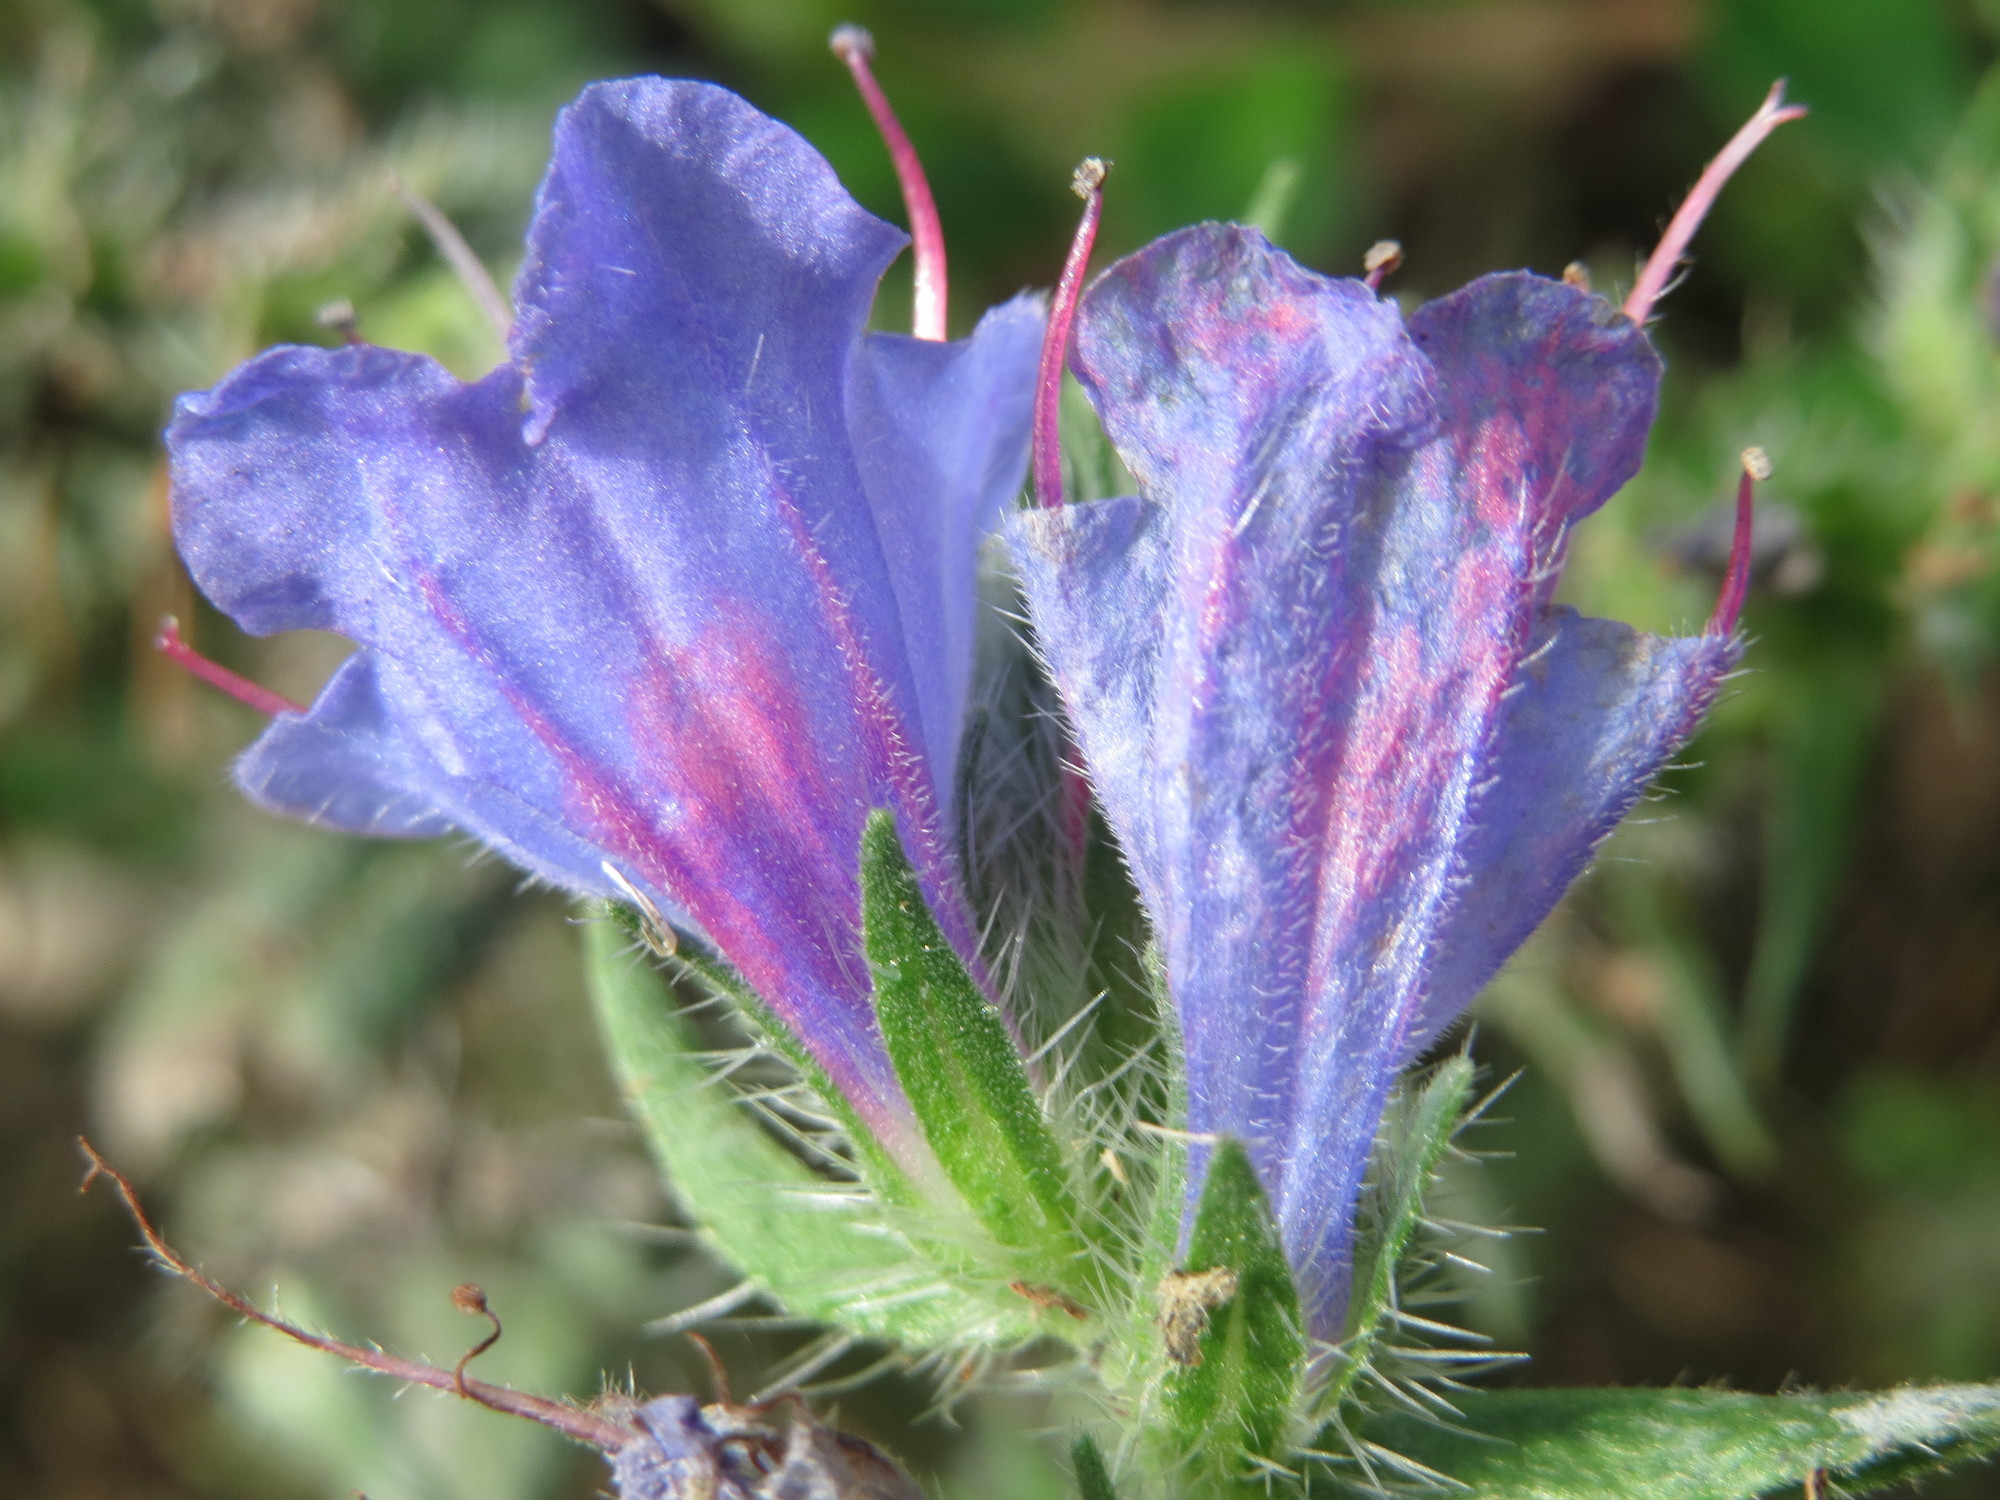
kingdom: Plantae
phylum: Tracheophyta
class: Magnoliopsida
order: Boraginales
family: Boraginaceae
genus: Echium
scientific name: Echium vulgare
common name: Common viper's bugloss
